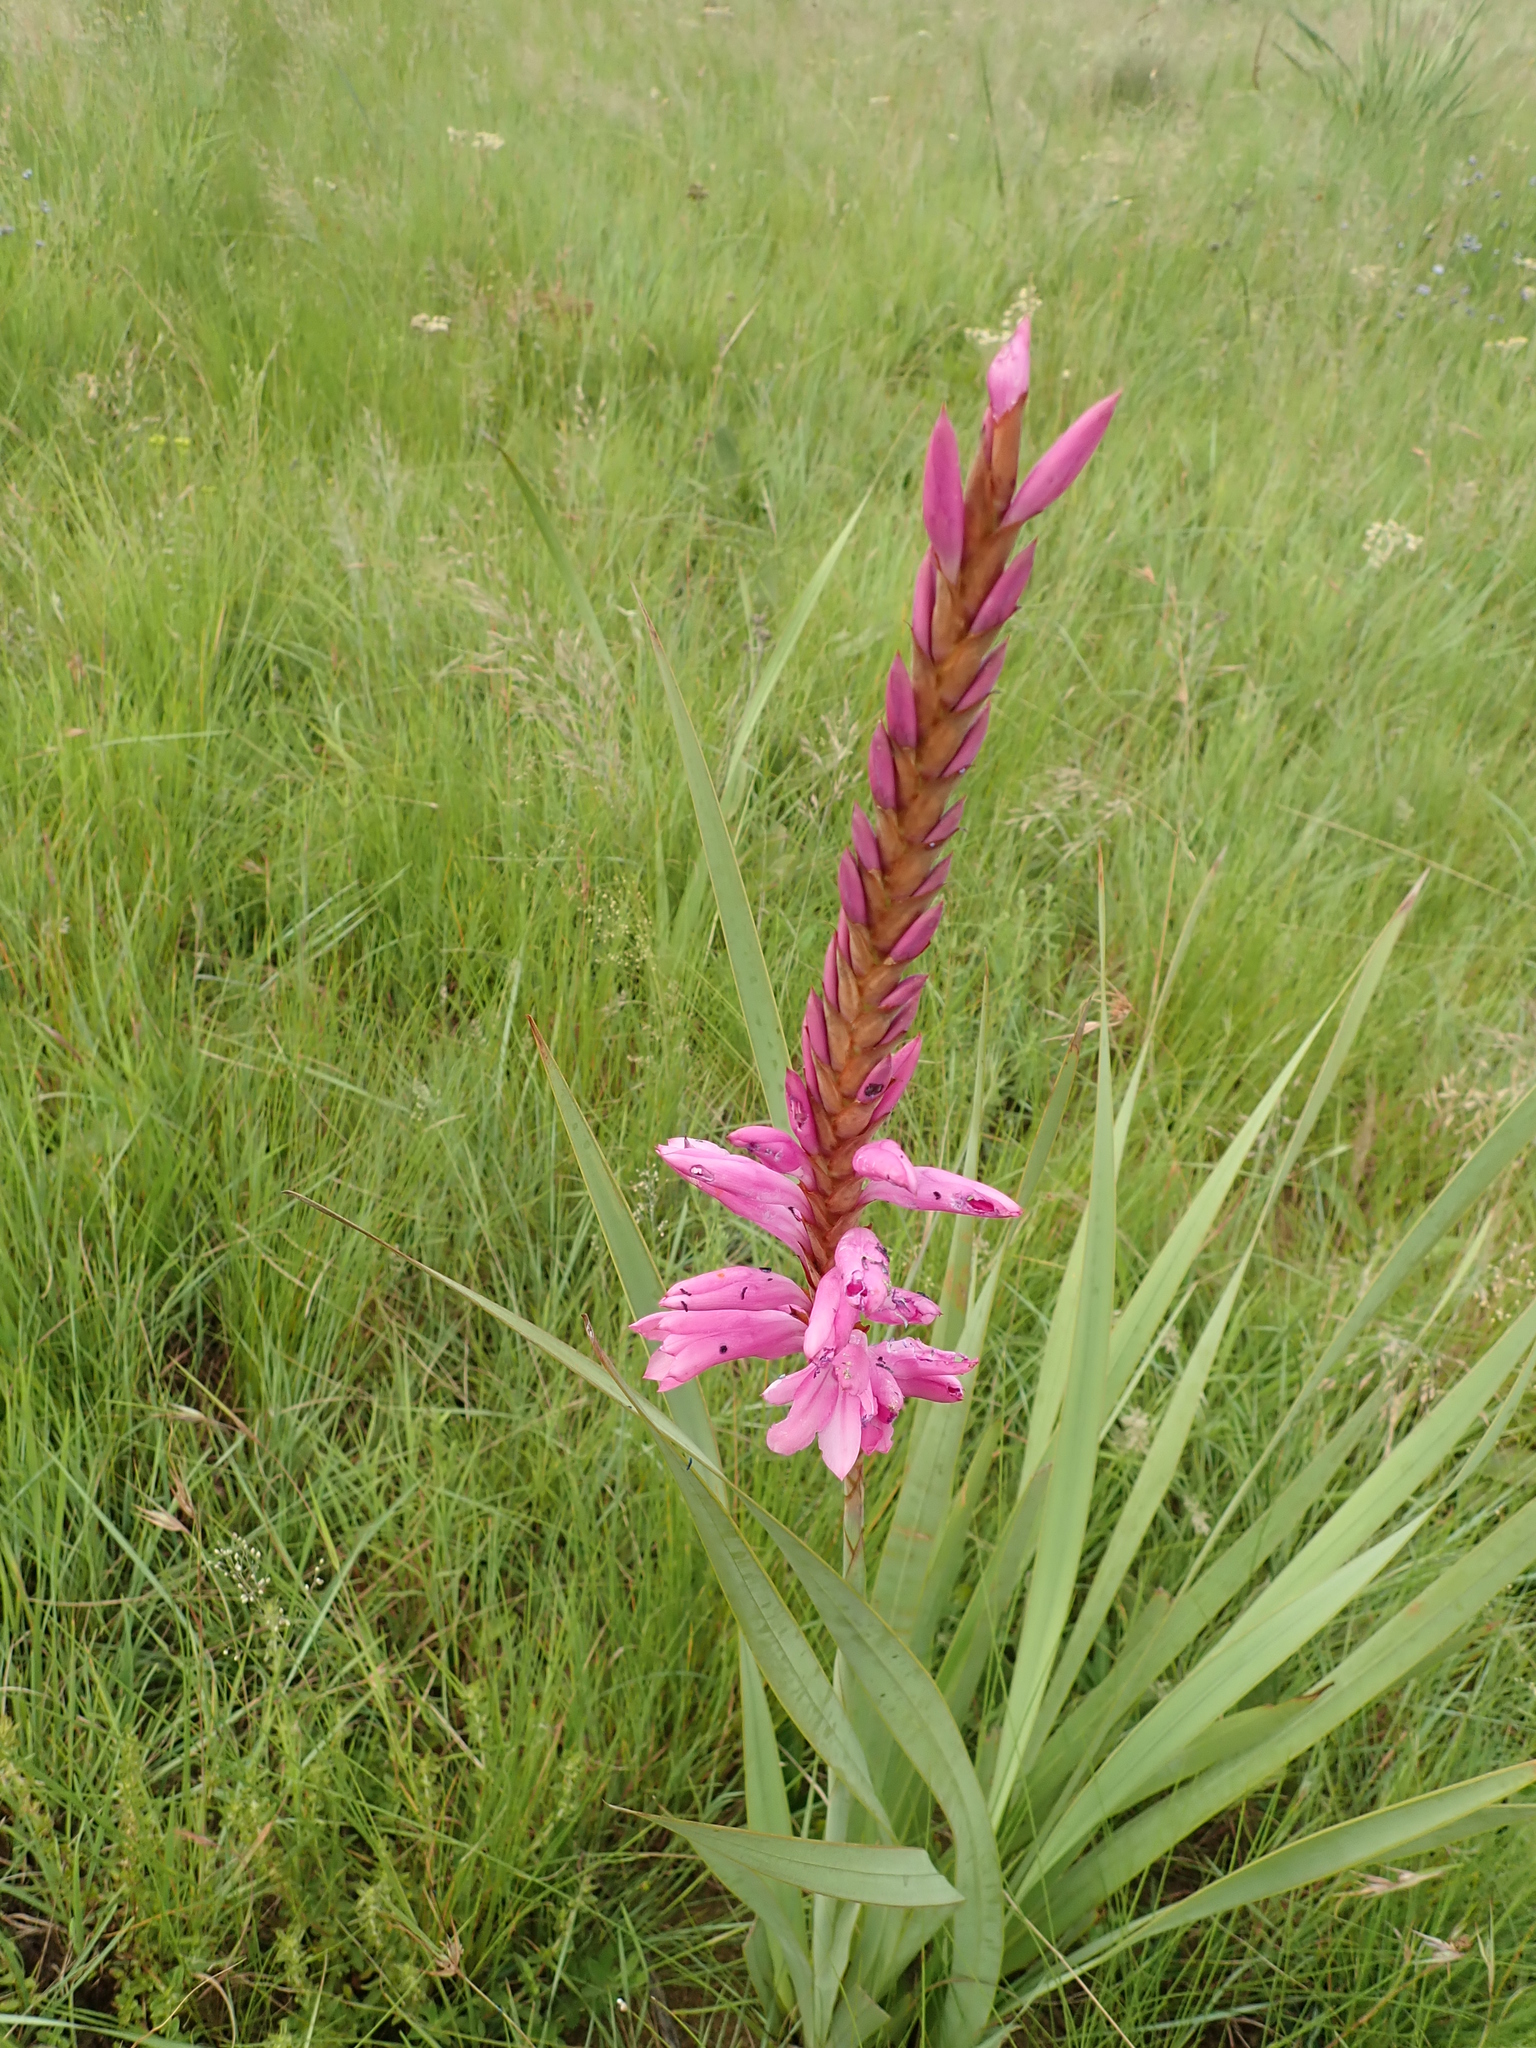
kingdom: Plantae
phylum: Tracheophyta
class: Liliopsida
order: Asparagales
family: Iridaceae
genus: Watsonia
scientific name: Watsonia confusa
